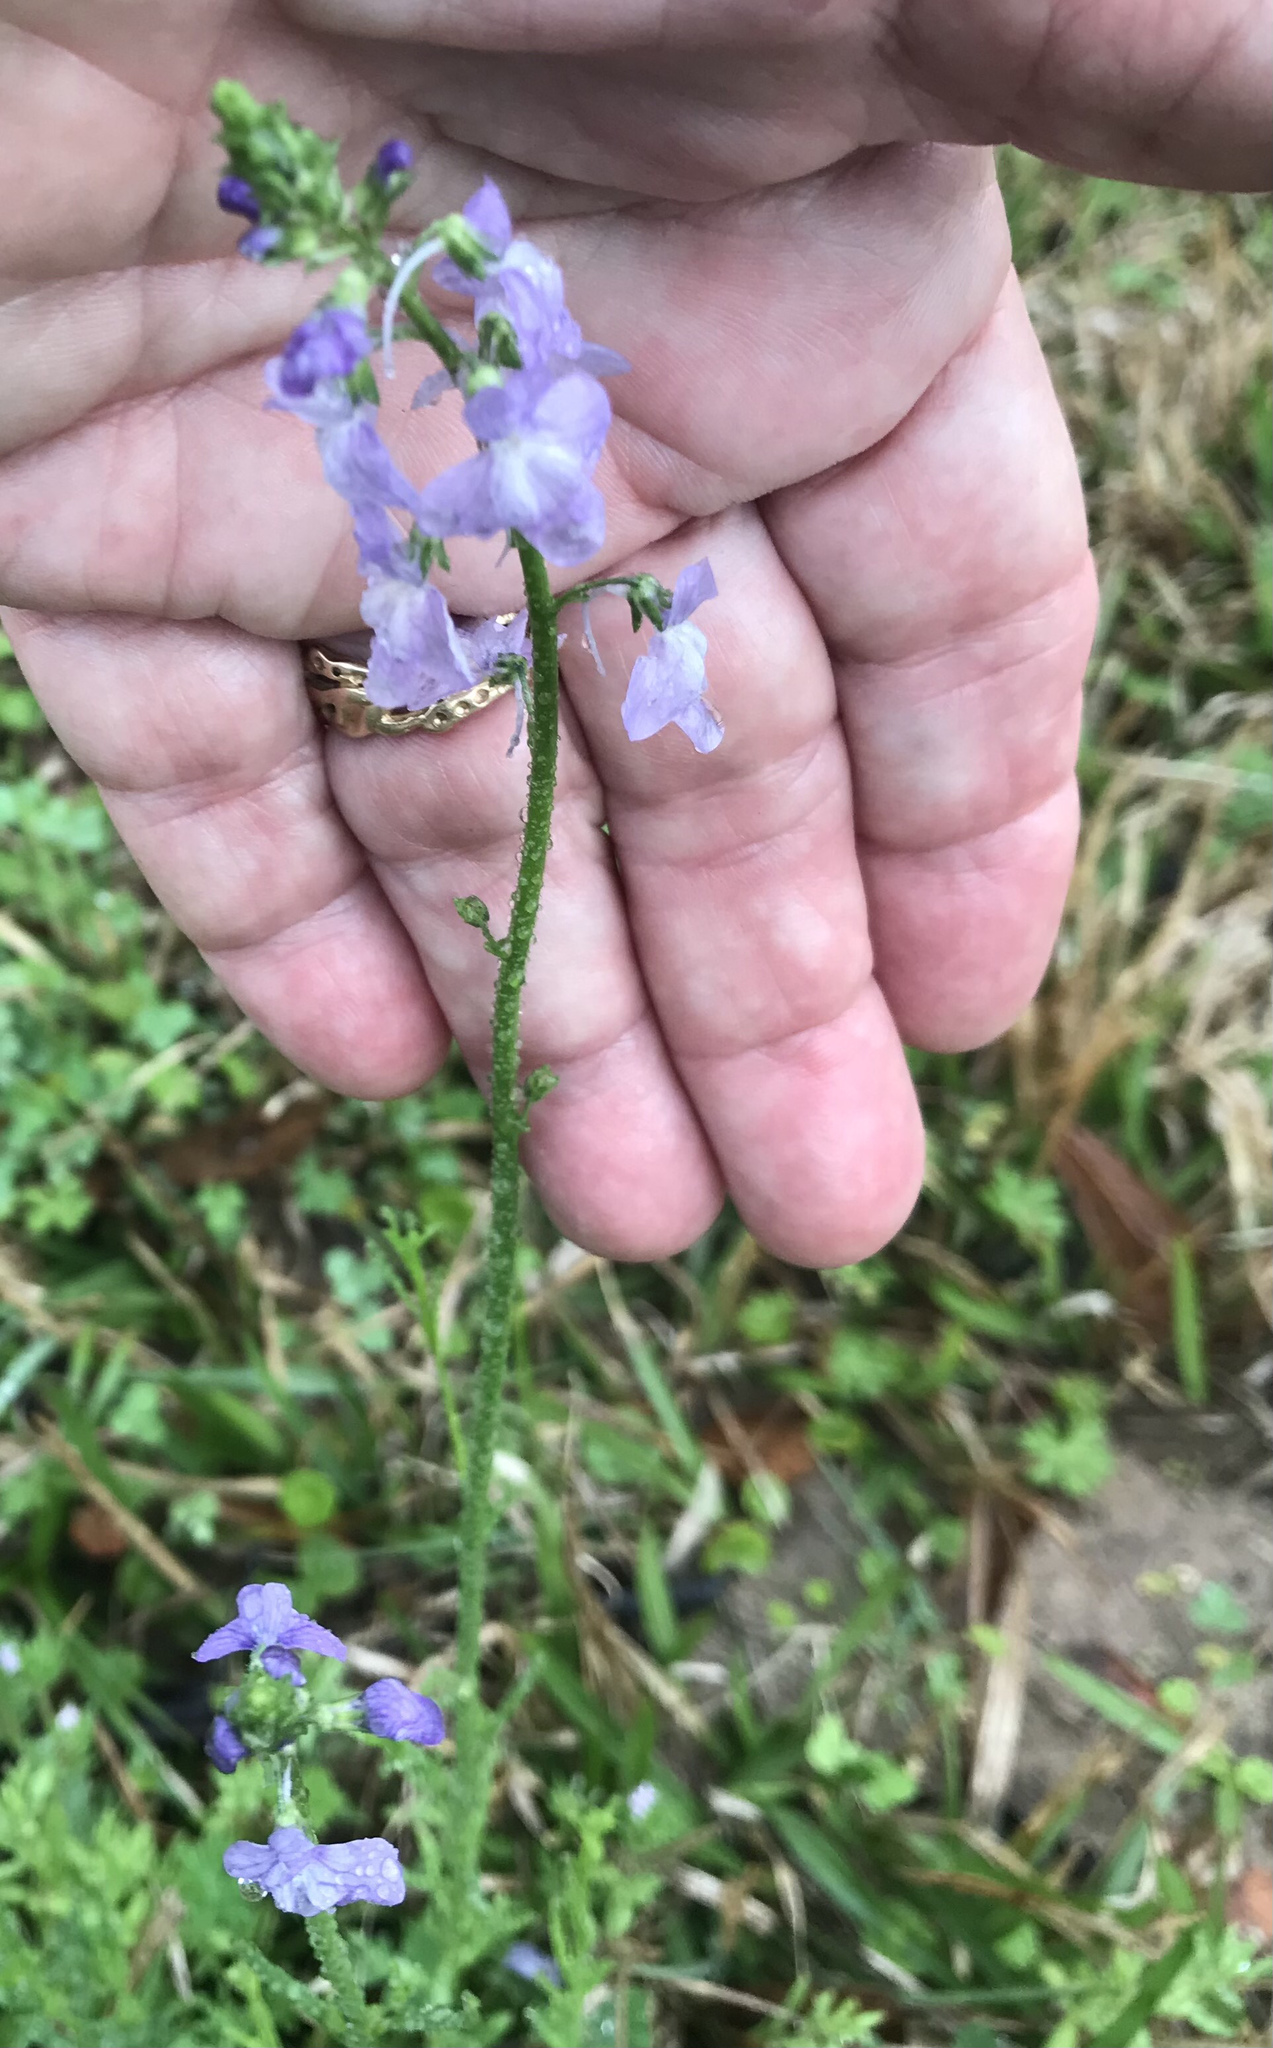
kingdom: Plantae
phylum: Tracheophyta
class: Magnoliopsida
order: Lamiales
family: Plantaginaceae
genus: Nuttallanthus
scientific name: Nuttallanthus texanus
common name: Texas toadflax
